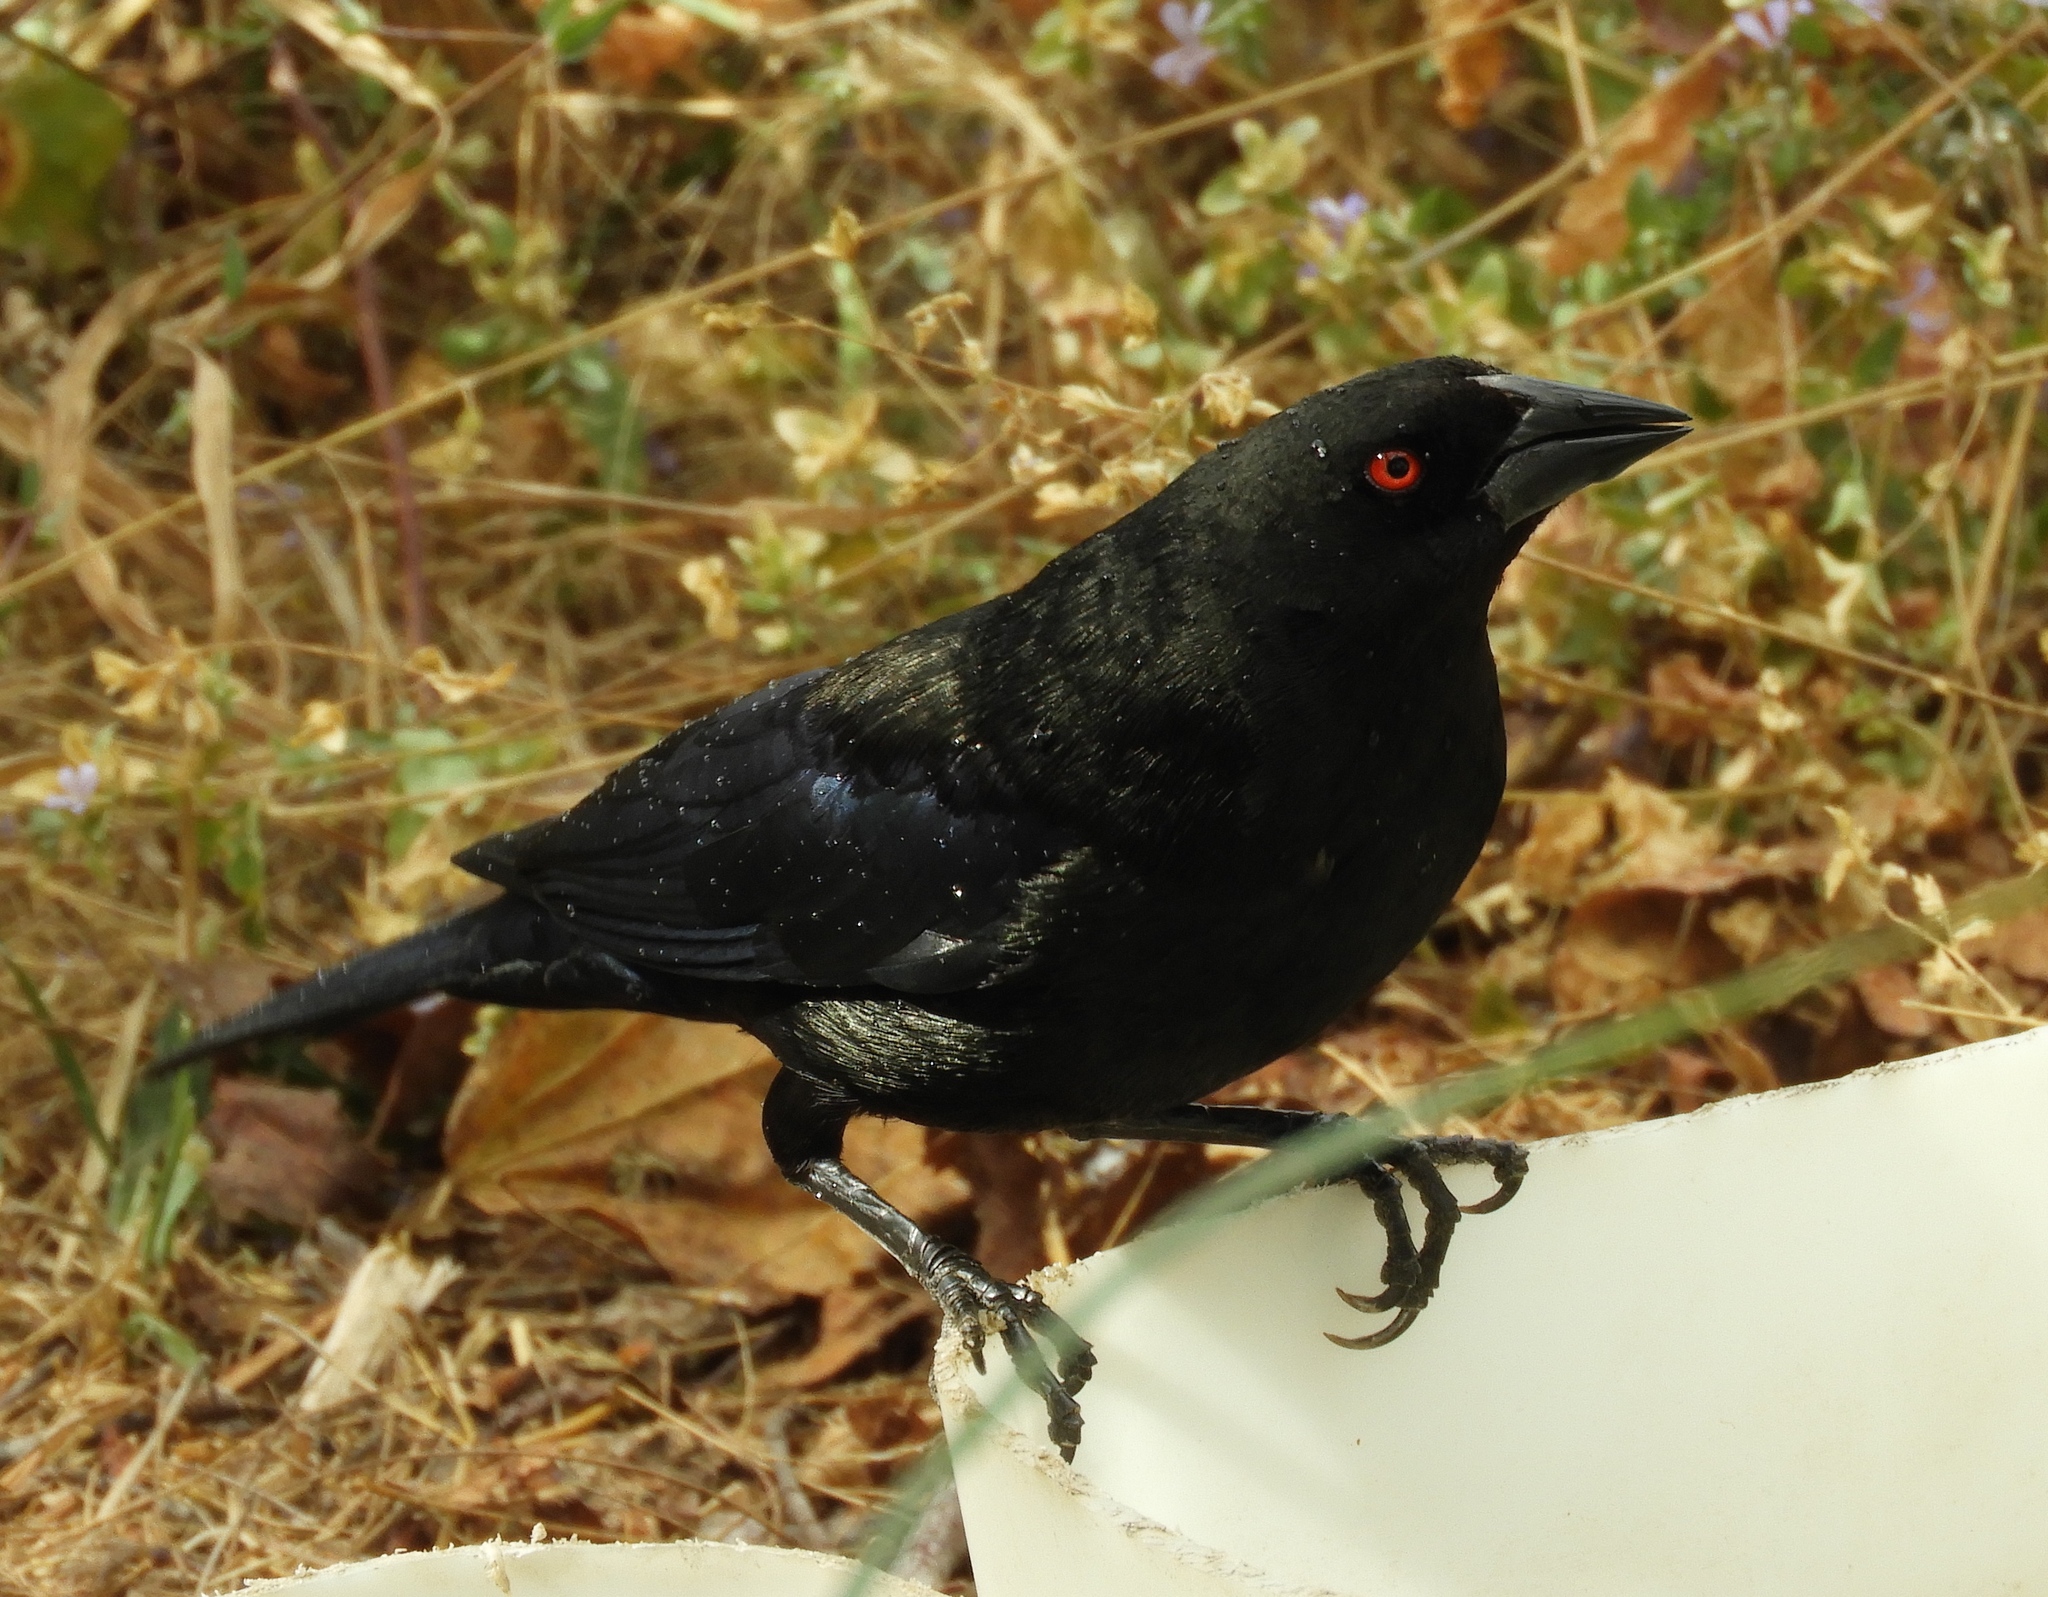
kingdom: Animalia
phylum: Chordata
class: Aves
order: Passeriformes
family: Icteridae
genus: Molothrus
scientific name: Molothrus aeneus
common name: Bronzed cowbird
